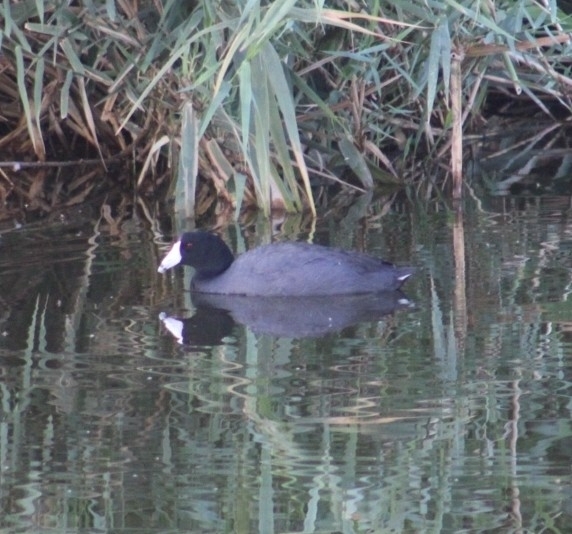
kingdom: Animalia
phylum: Chordata
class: Aves
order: Gruiformes
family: Rallidae
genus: Fulica
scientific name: Fulica americana
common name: American coot
